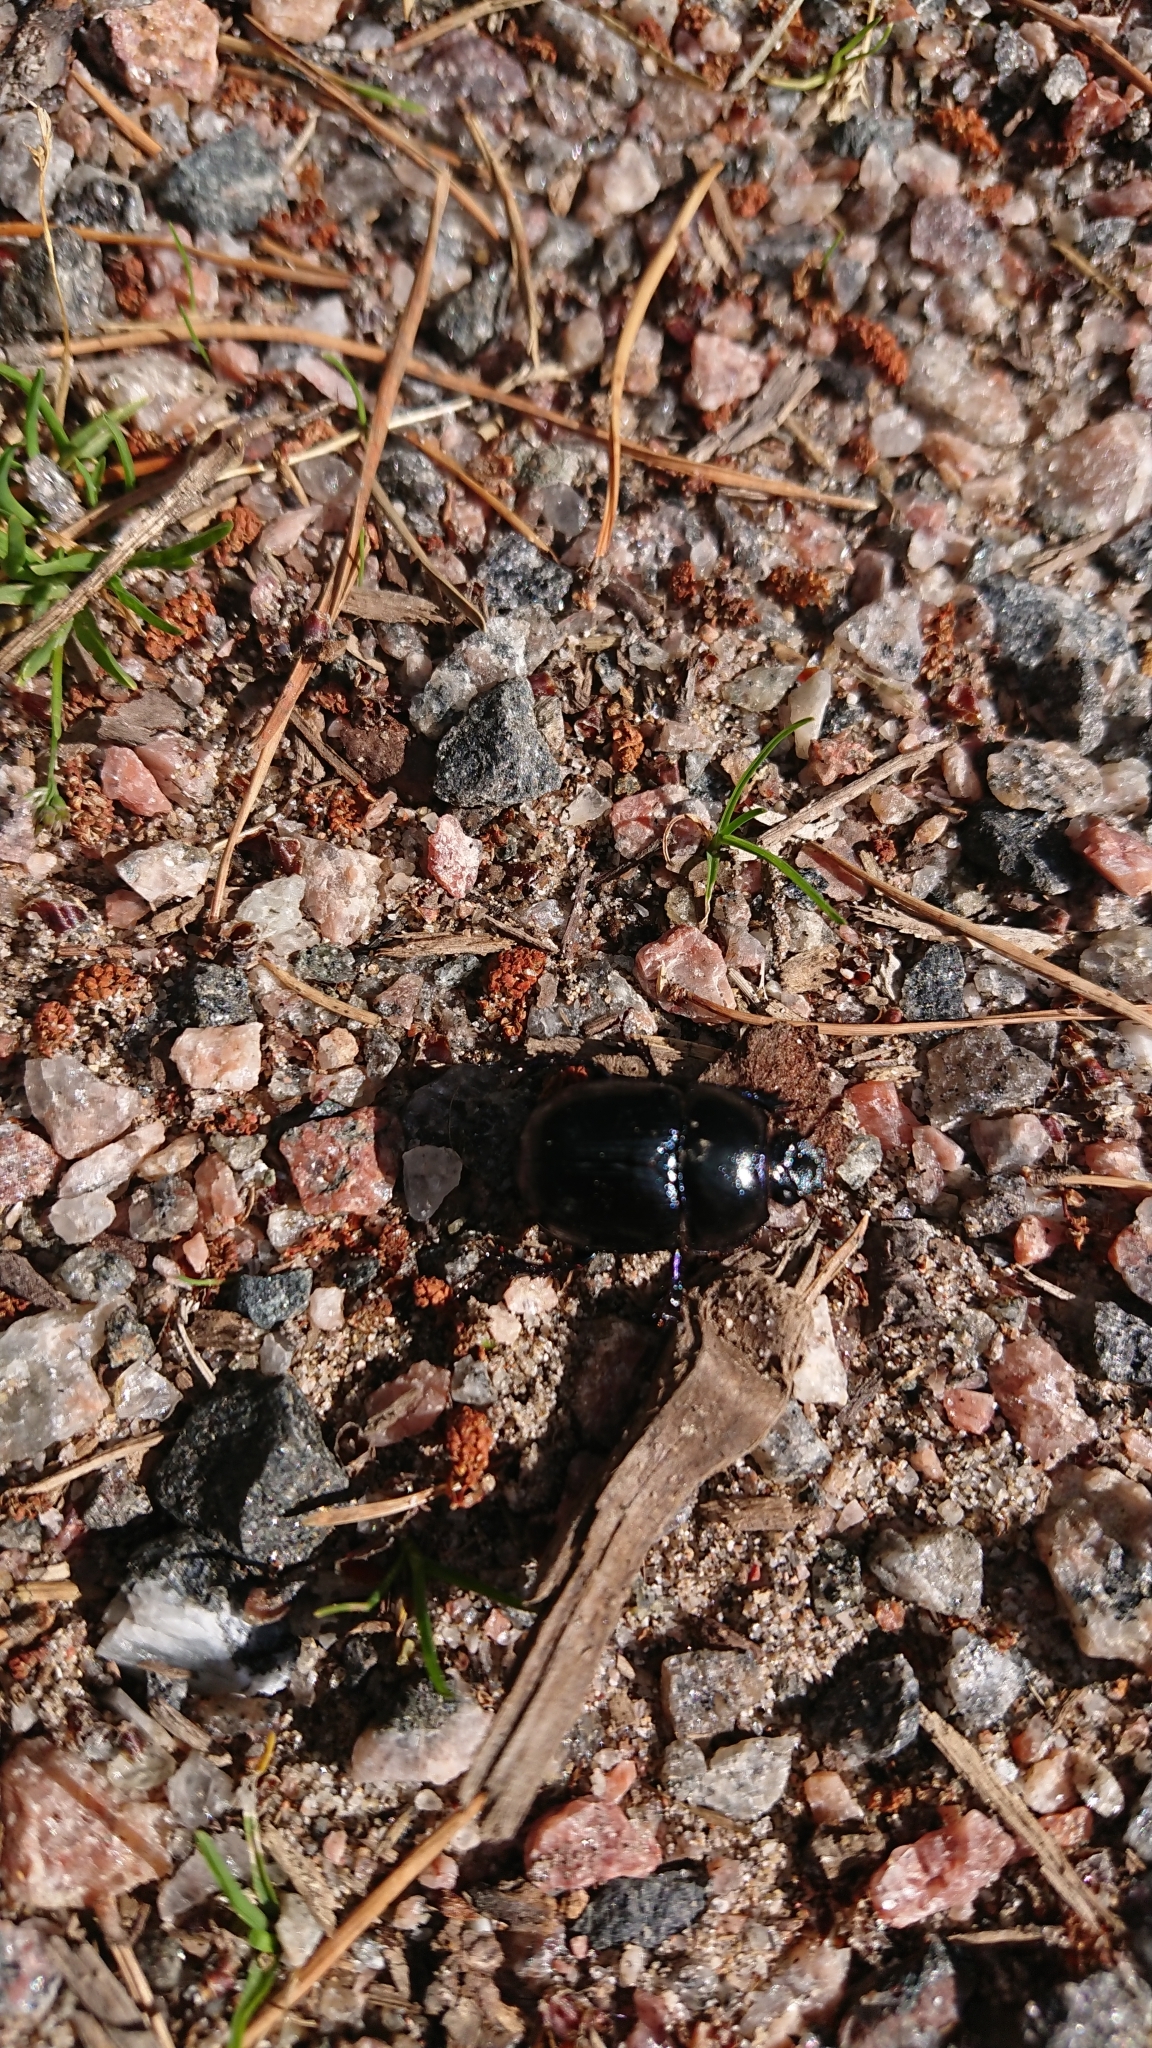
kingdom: Animalia
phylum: Arthropoda
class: Insecta
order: Coleoptera
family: Geotrupidae
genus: Anoplotrupes
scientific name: Anoplotrupes stercorosus
